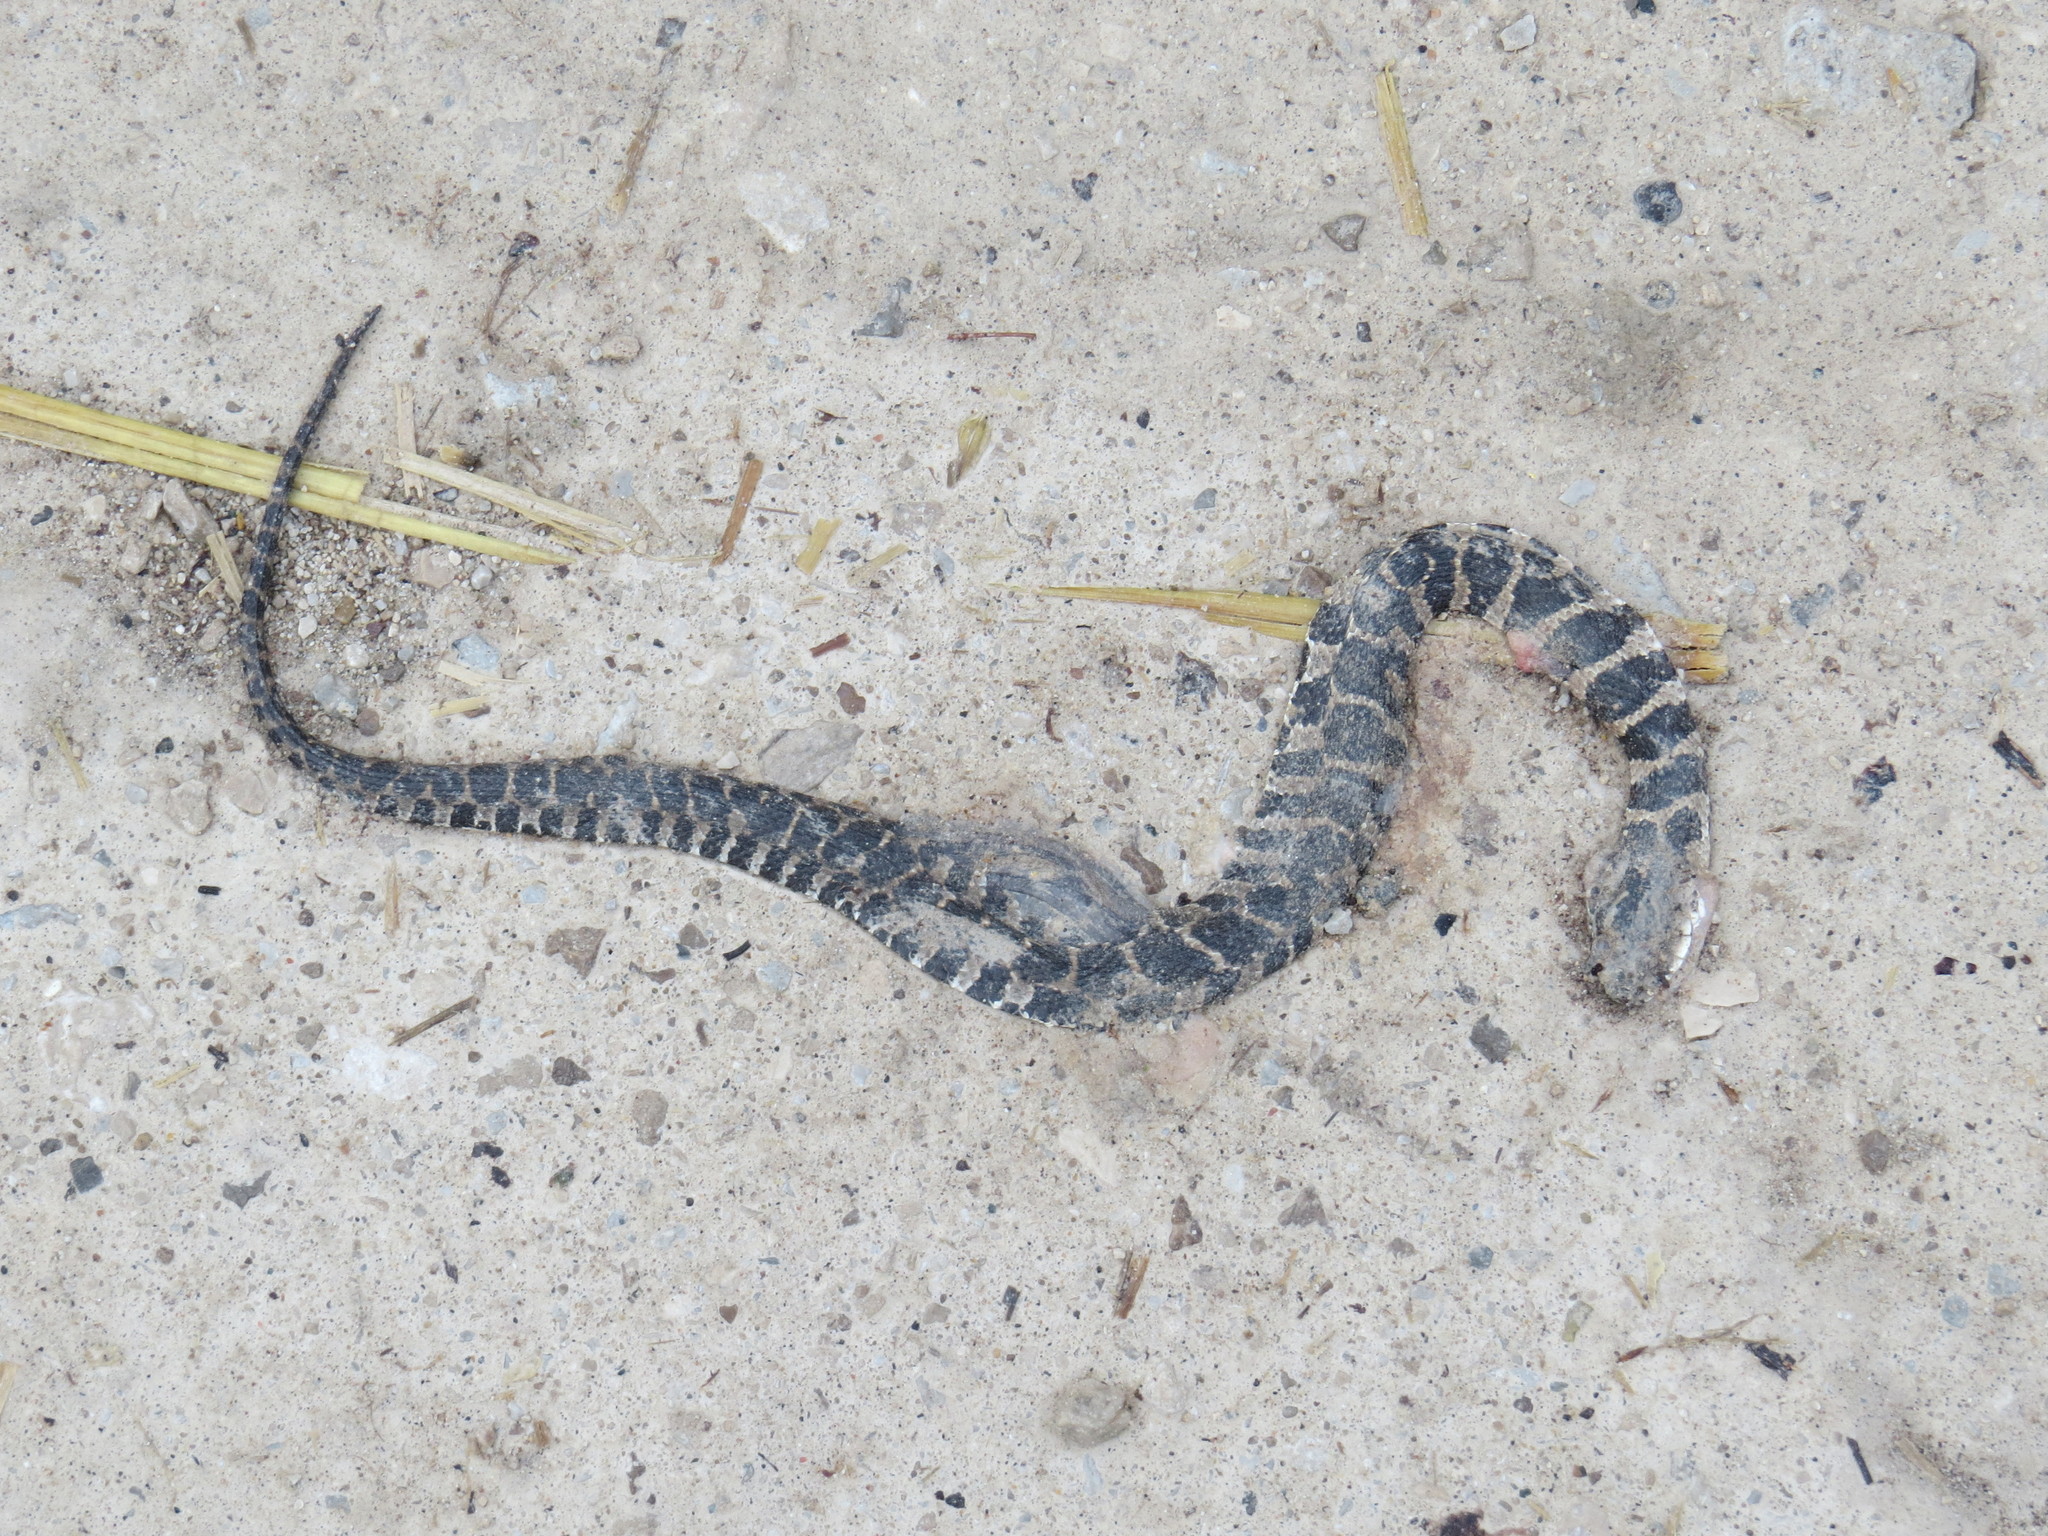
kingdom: Animalia
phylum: Chordata
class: Squamata
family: Colubridae
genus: Nerodia
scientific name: Nerodia sipedon
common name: Northern water snake
